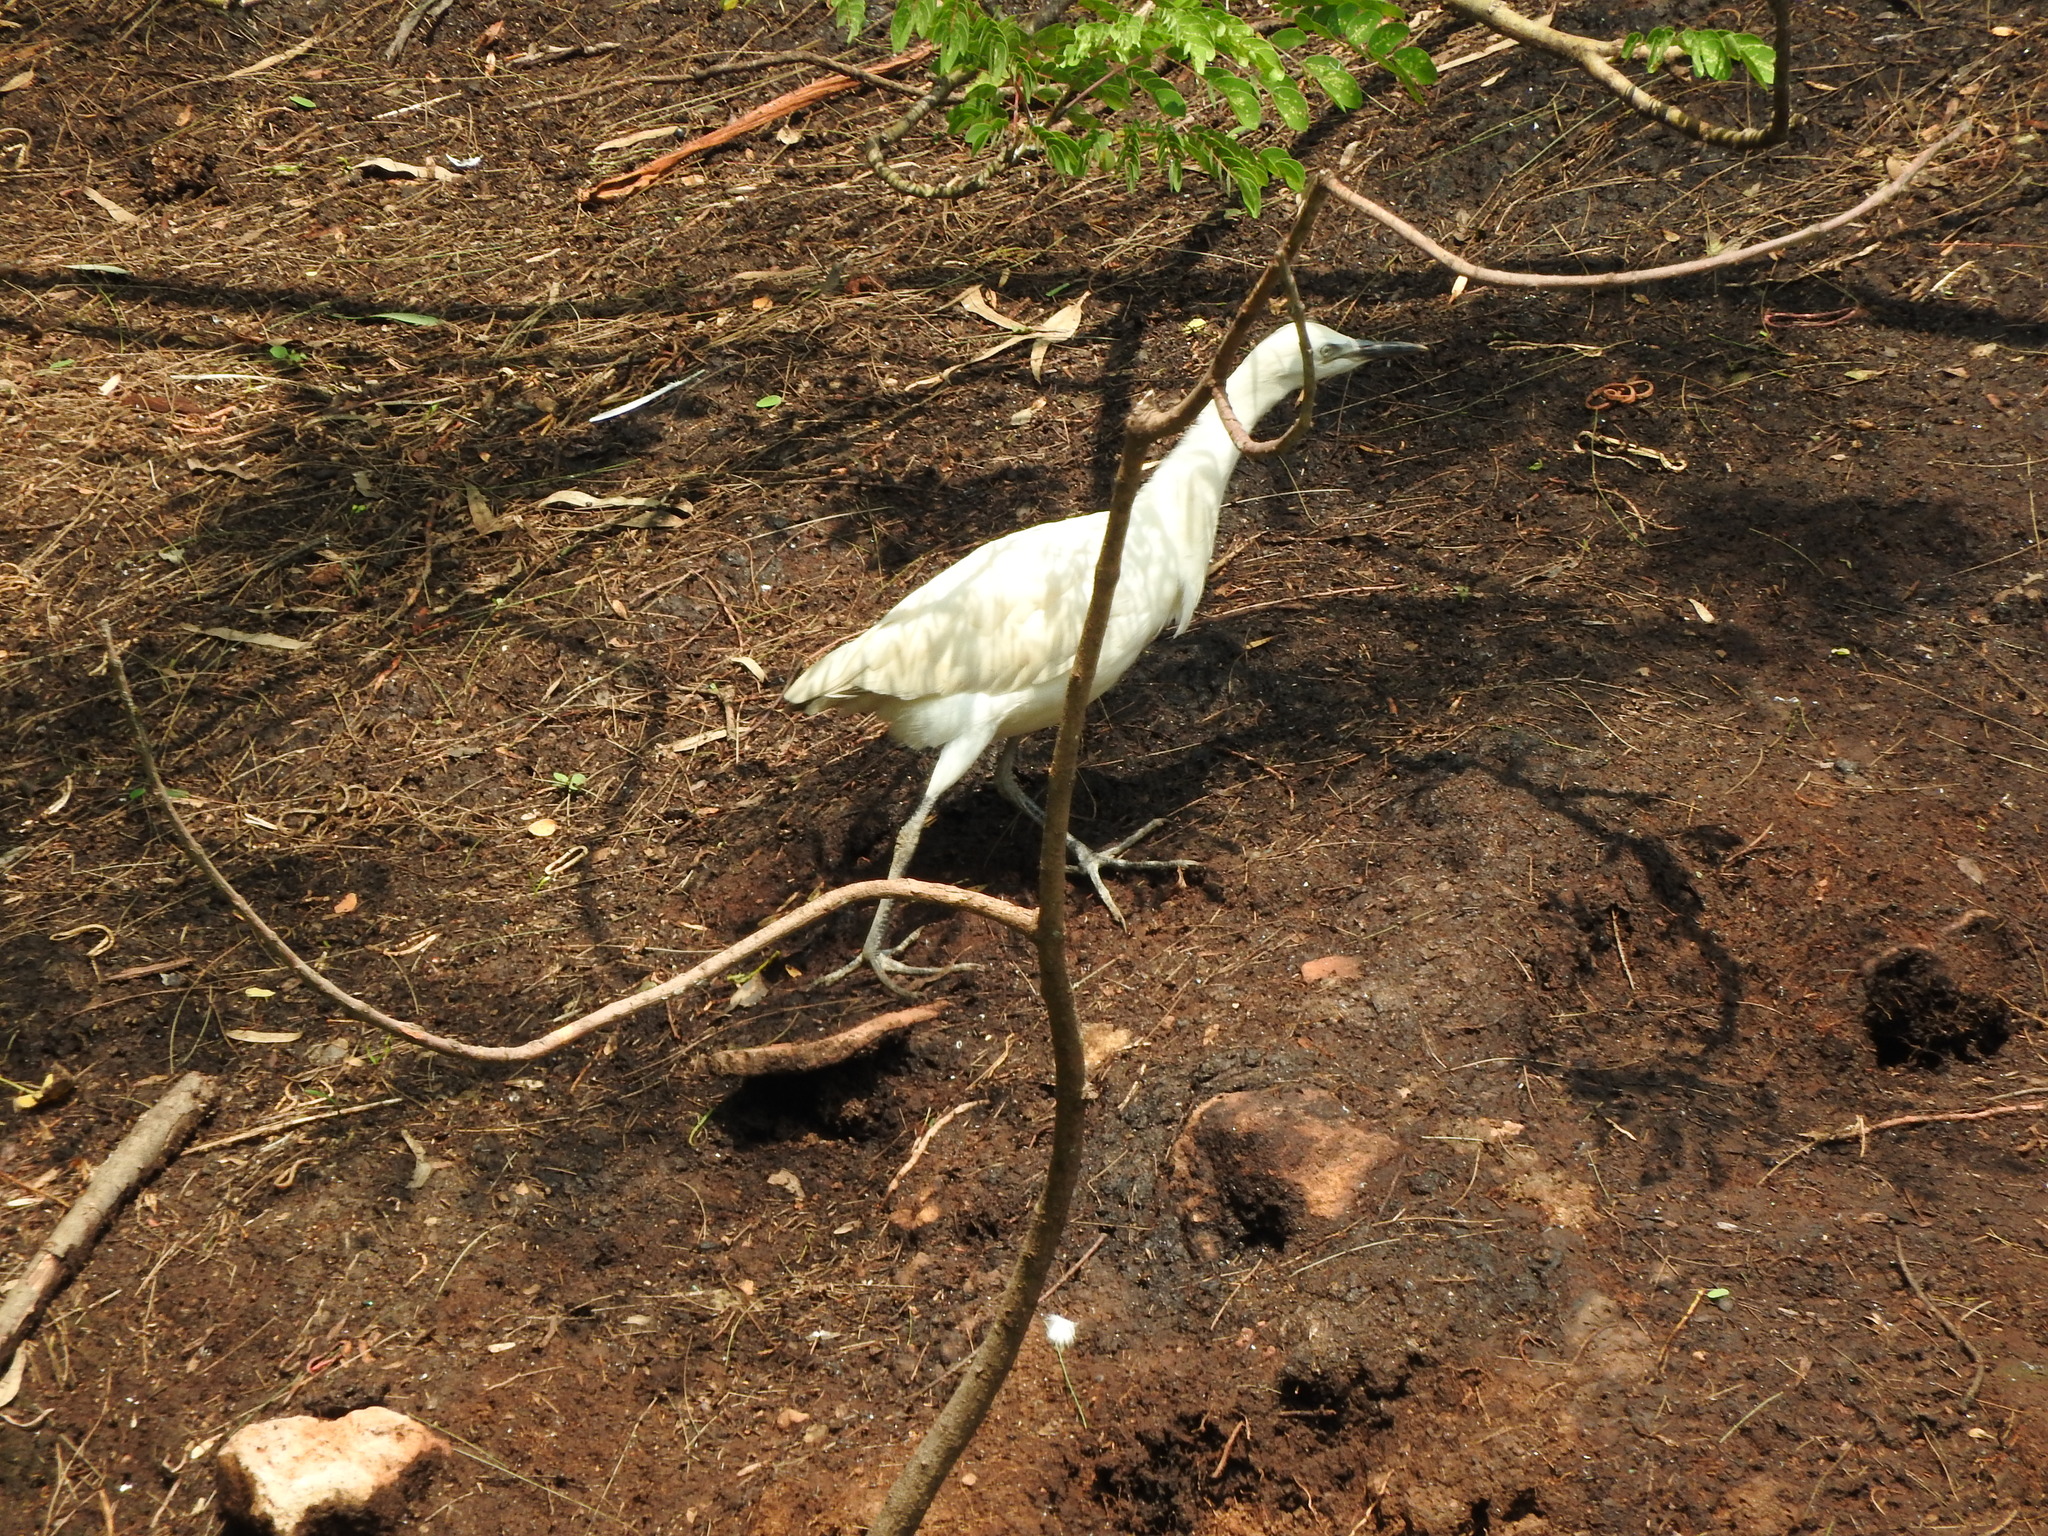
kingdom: Animalia
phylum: Chordata
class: Aves
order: Pelecaniformes
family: Ardeidae
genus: Bubulcus
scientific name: Bubulcus ibis
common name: Cattle egret
